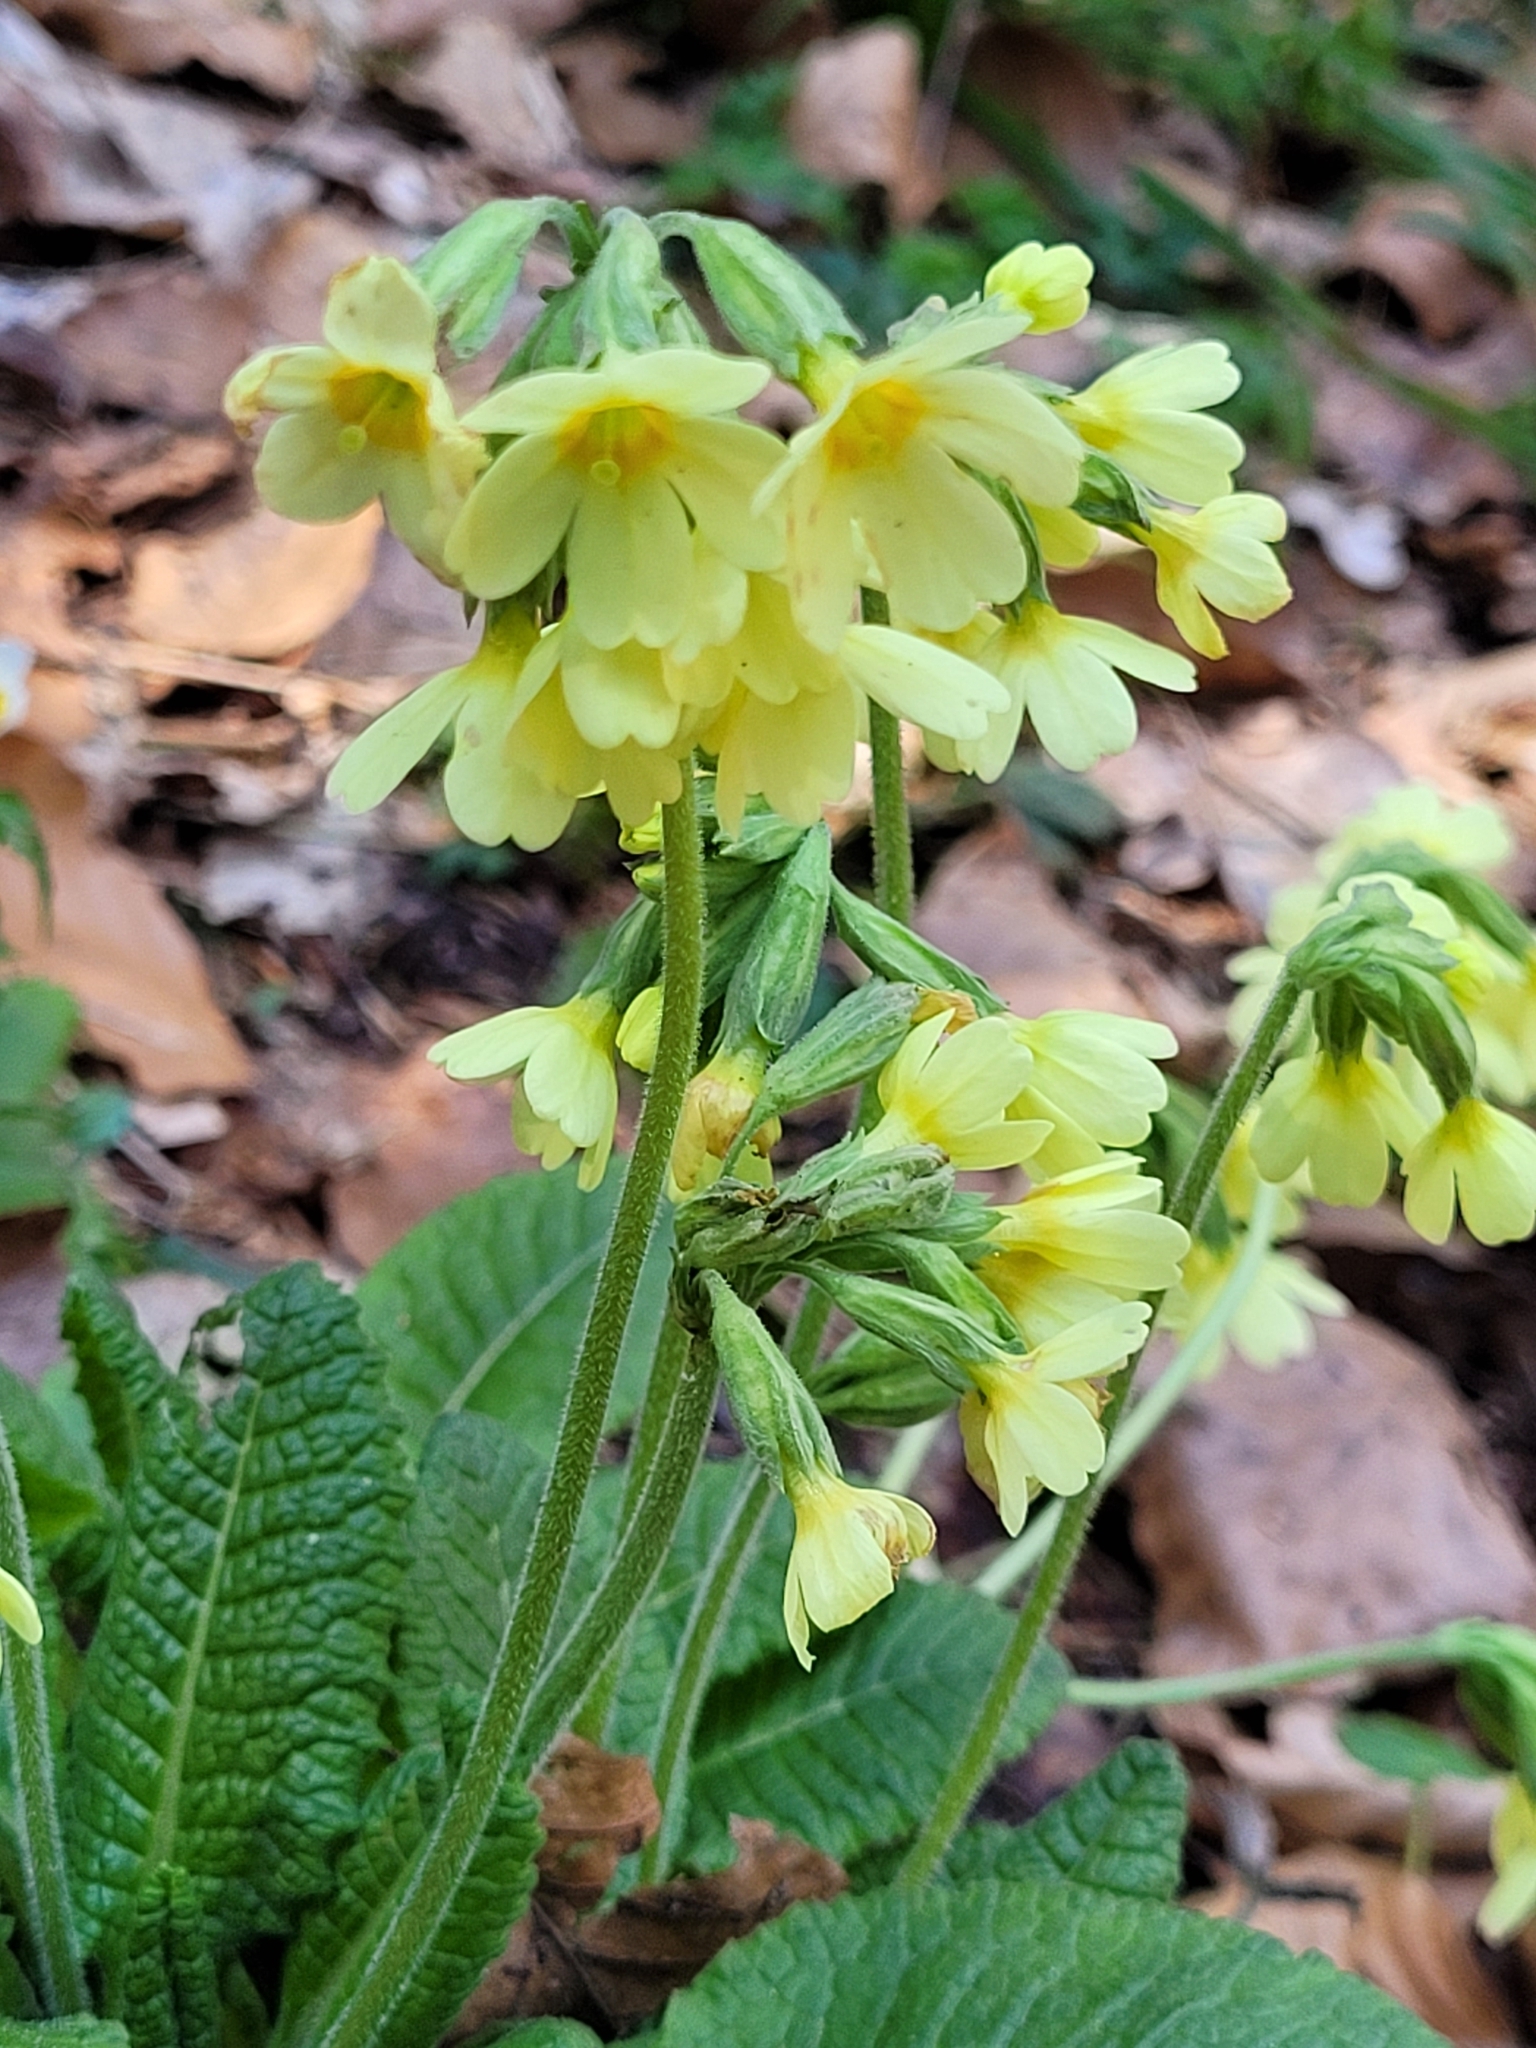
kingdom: Plantae
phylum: Tracheophyta
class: Magnoliopsida
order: Ericales
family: Primulaceae
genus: Primula
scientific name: Primula elatior
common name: Oxlip
